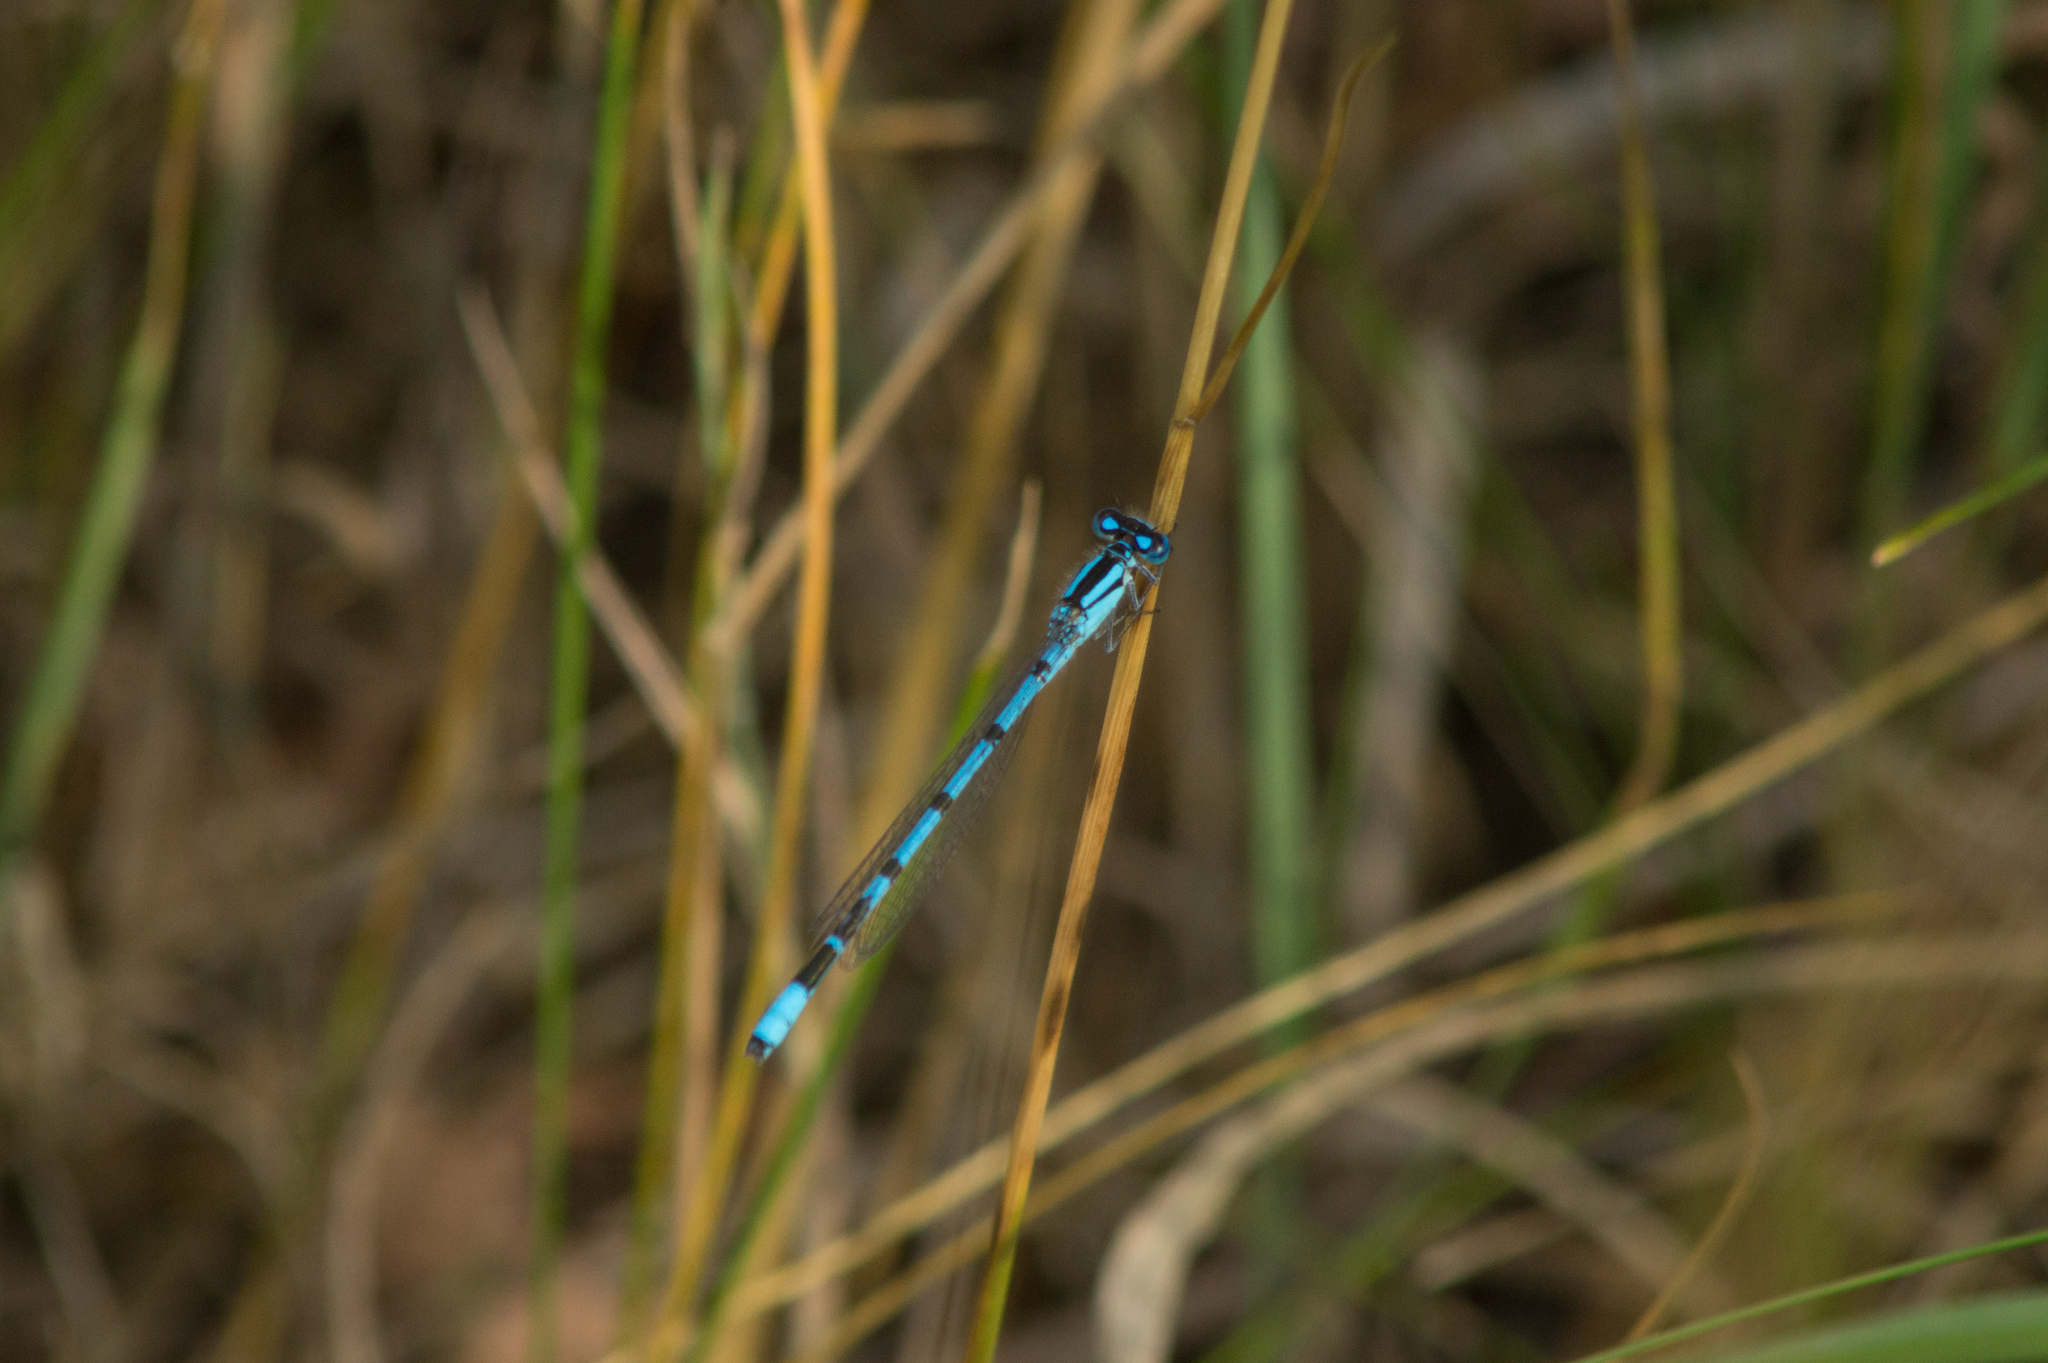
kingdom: Animalia
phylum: Arthropoda
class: Insecta
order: Odonata
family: Coenagrionidae
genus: Enallagma
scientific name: Enallagma cyathigerum
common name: Common blue damselfly
